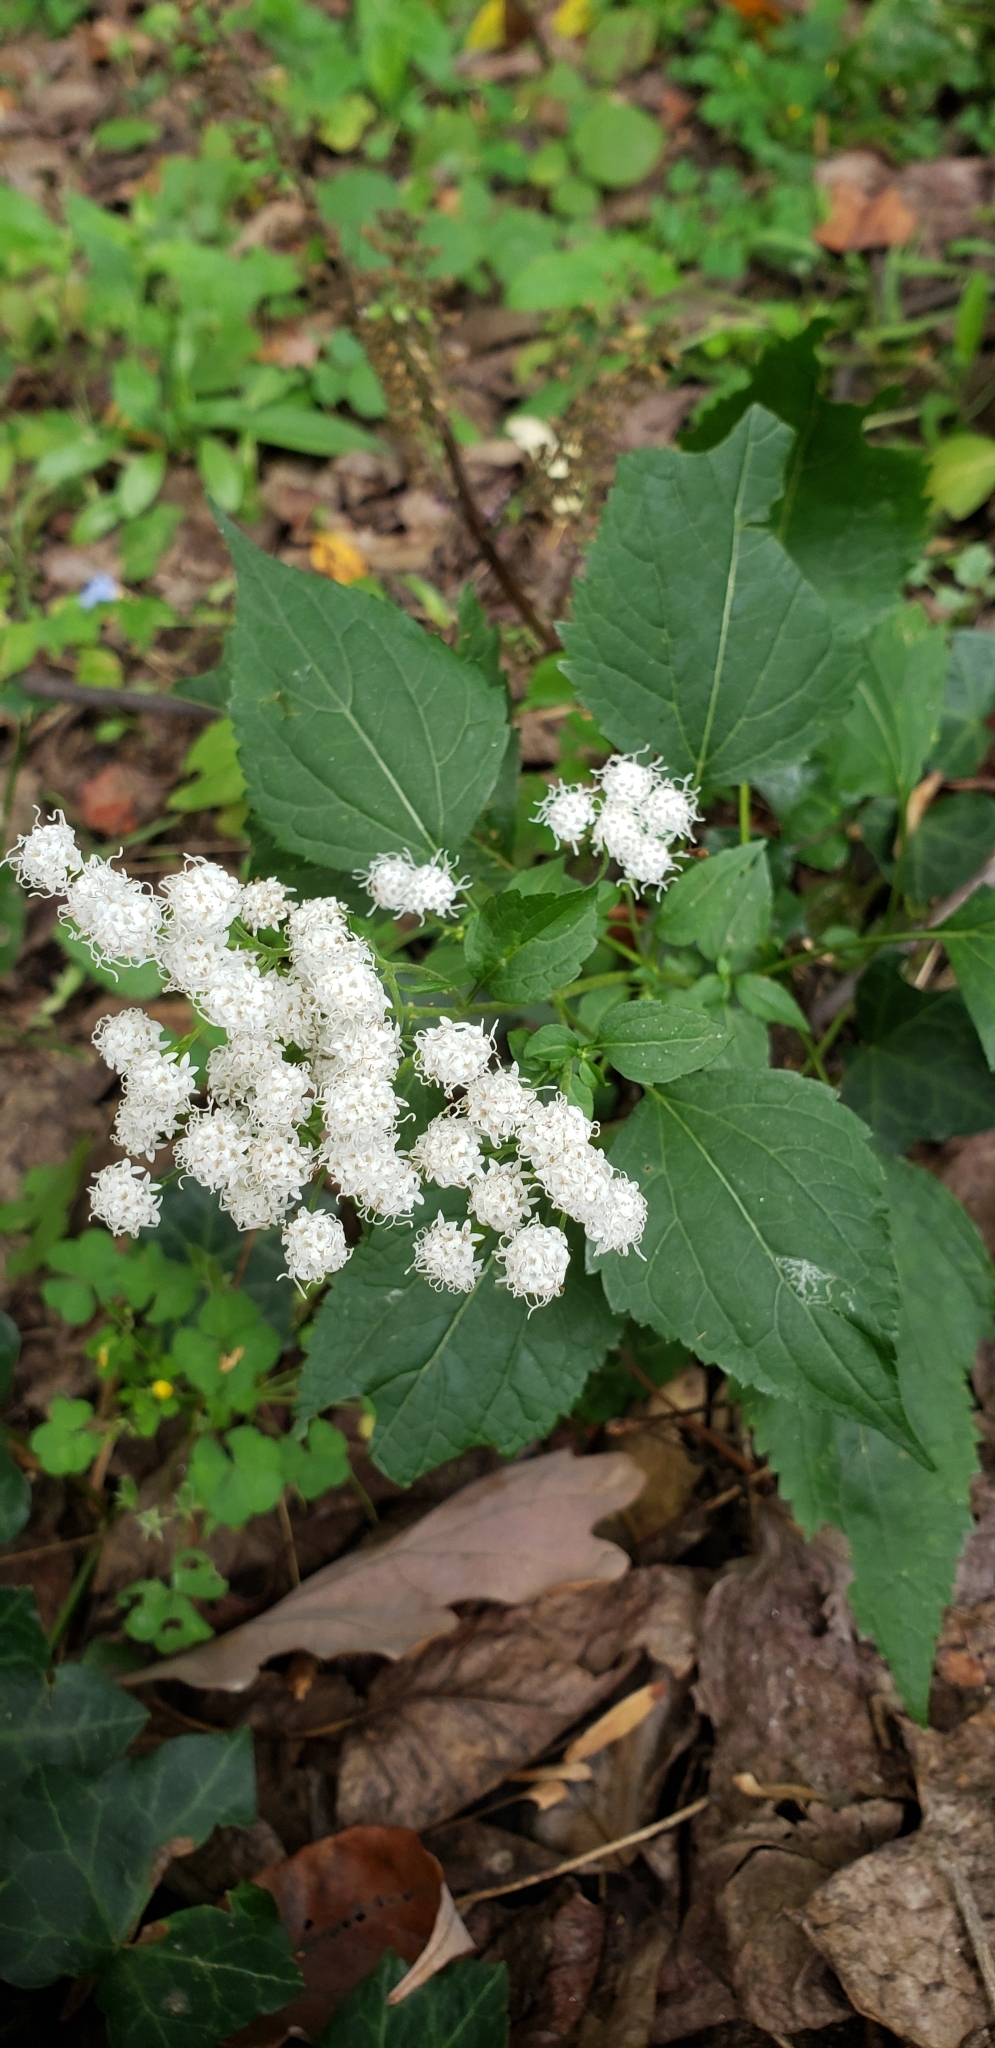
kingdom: Plantae
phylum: Tracheophyta
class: Magnoliopsida
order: Asterales
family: Asteraceae
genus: Ageratina
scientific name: Ageratina altissima
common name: White snakeroot
